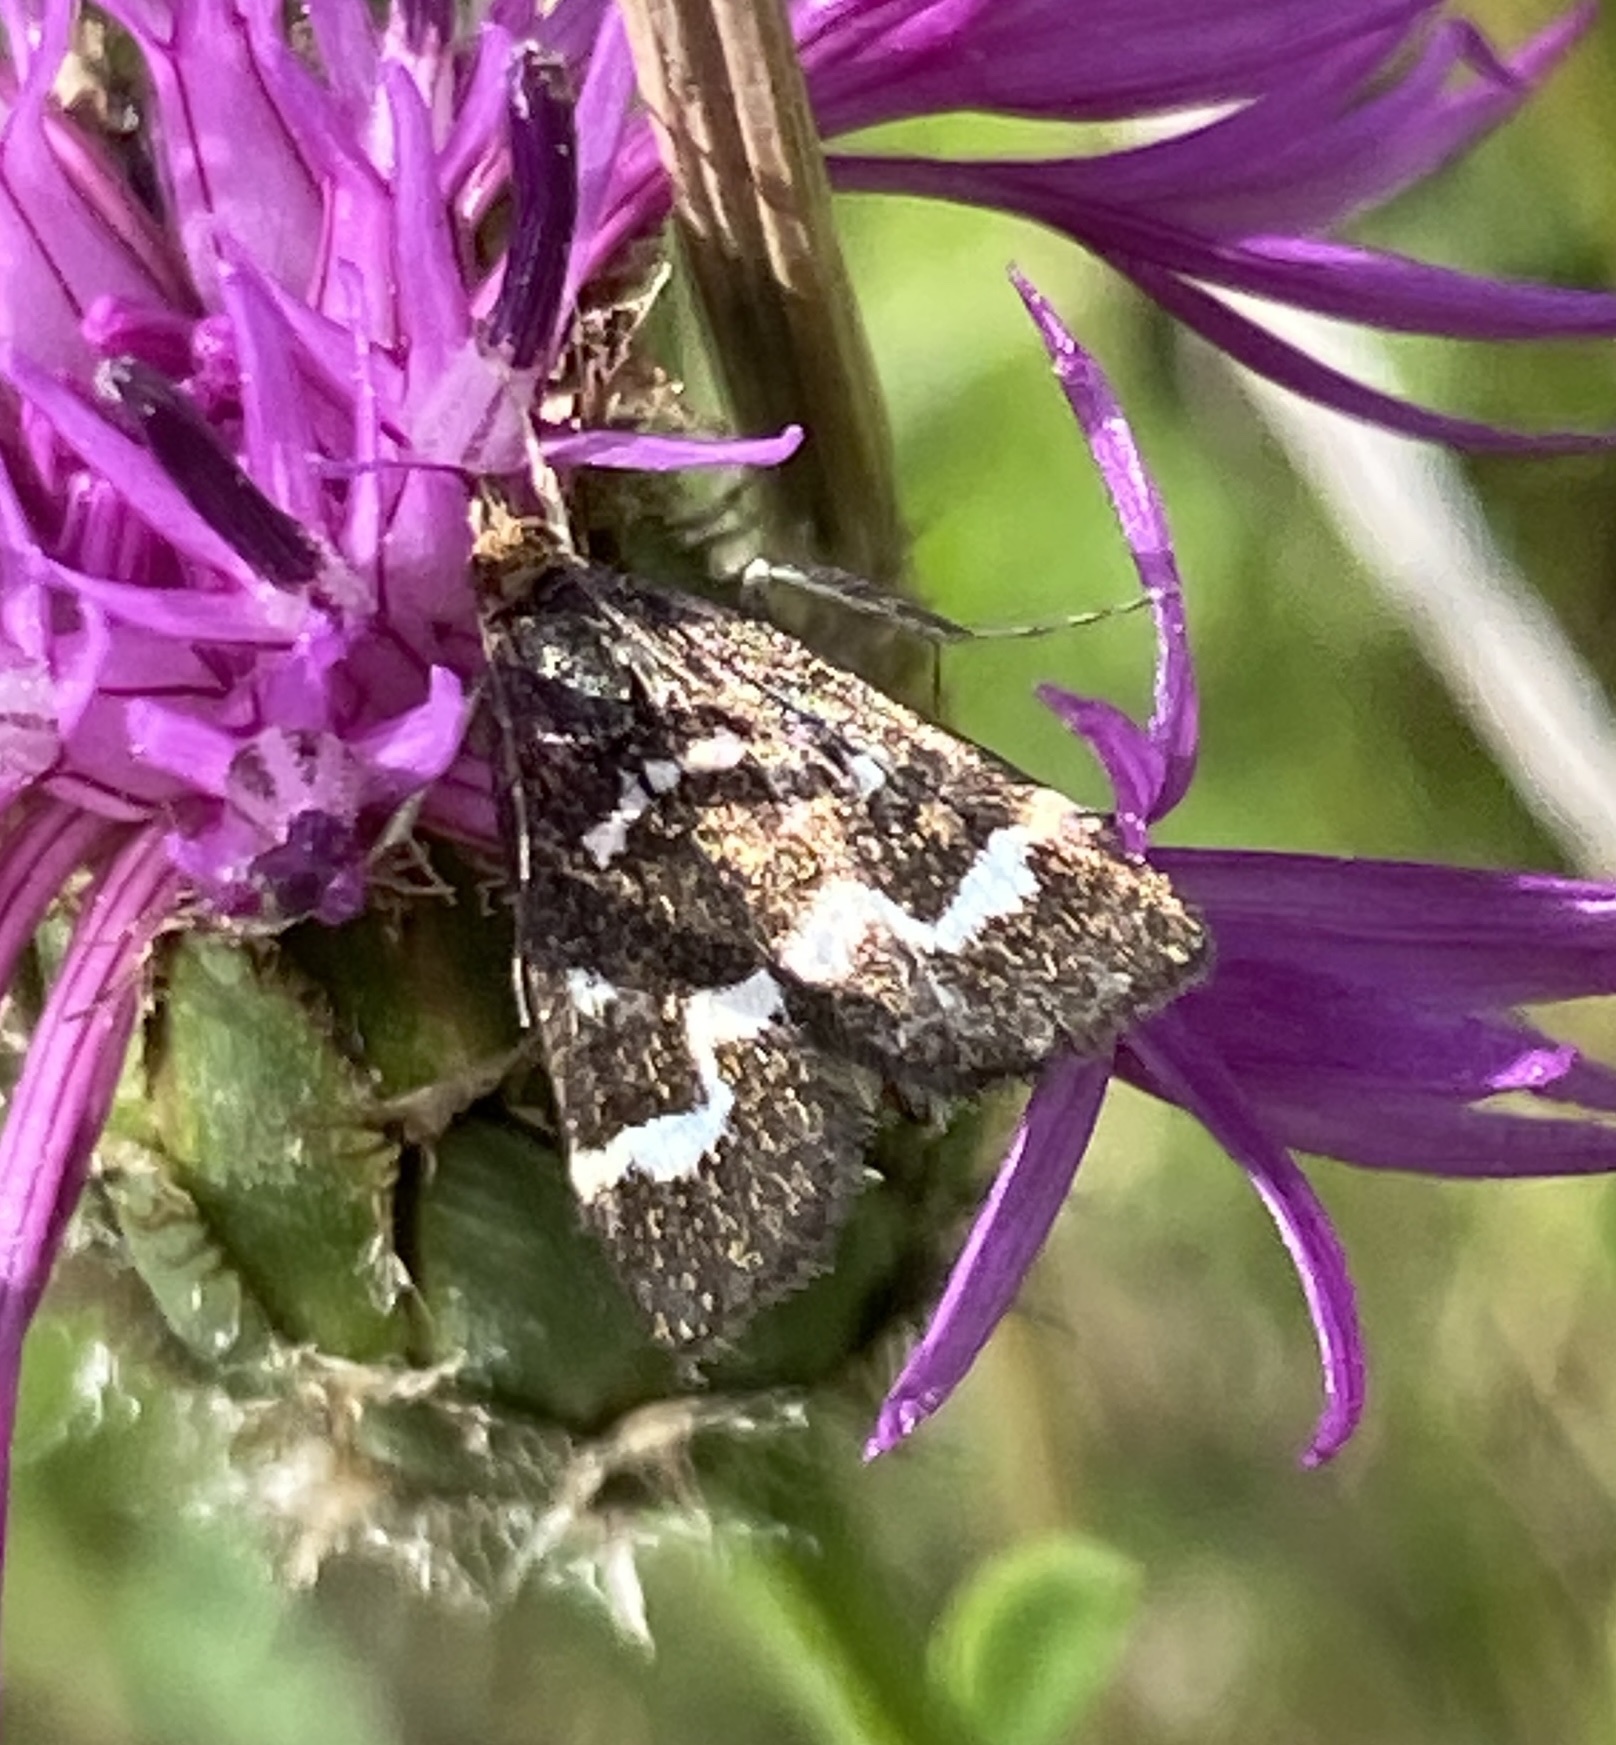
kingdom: Animalia
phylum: Arthropoda
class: Insecta
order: Lepidoptera
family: Crambidae
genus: Pyrausta
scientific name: Pyrausta nigrata
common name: Wavy-barred sable
